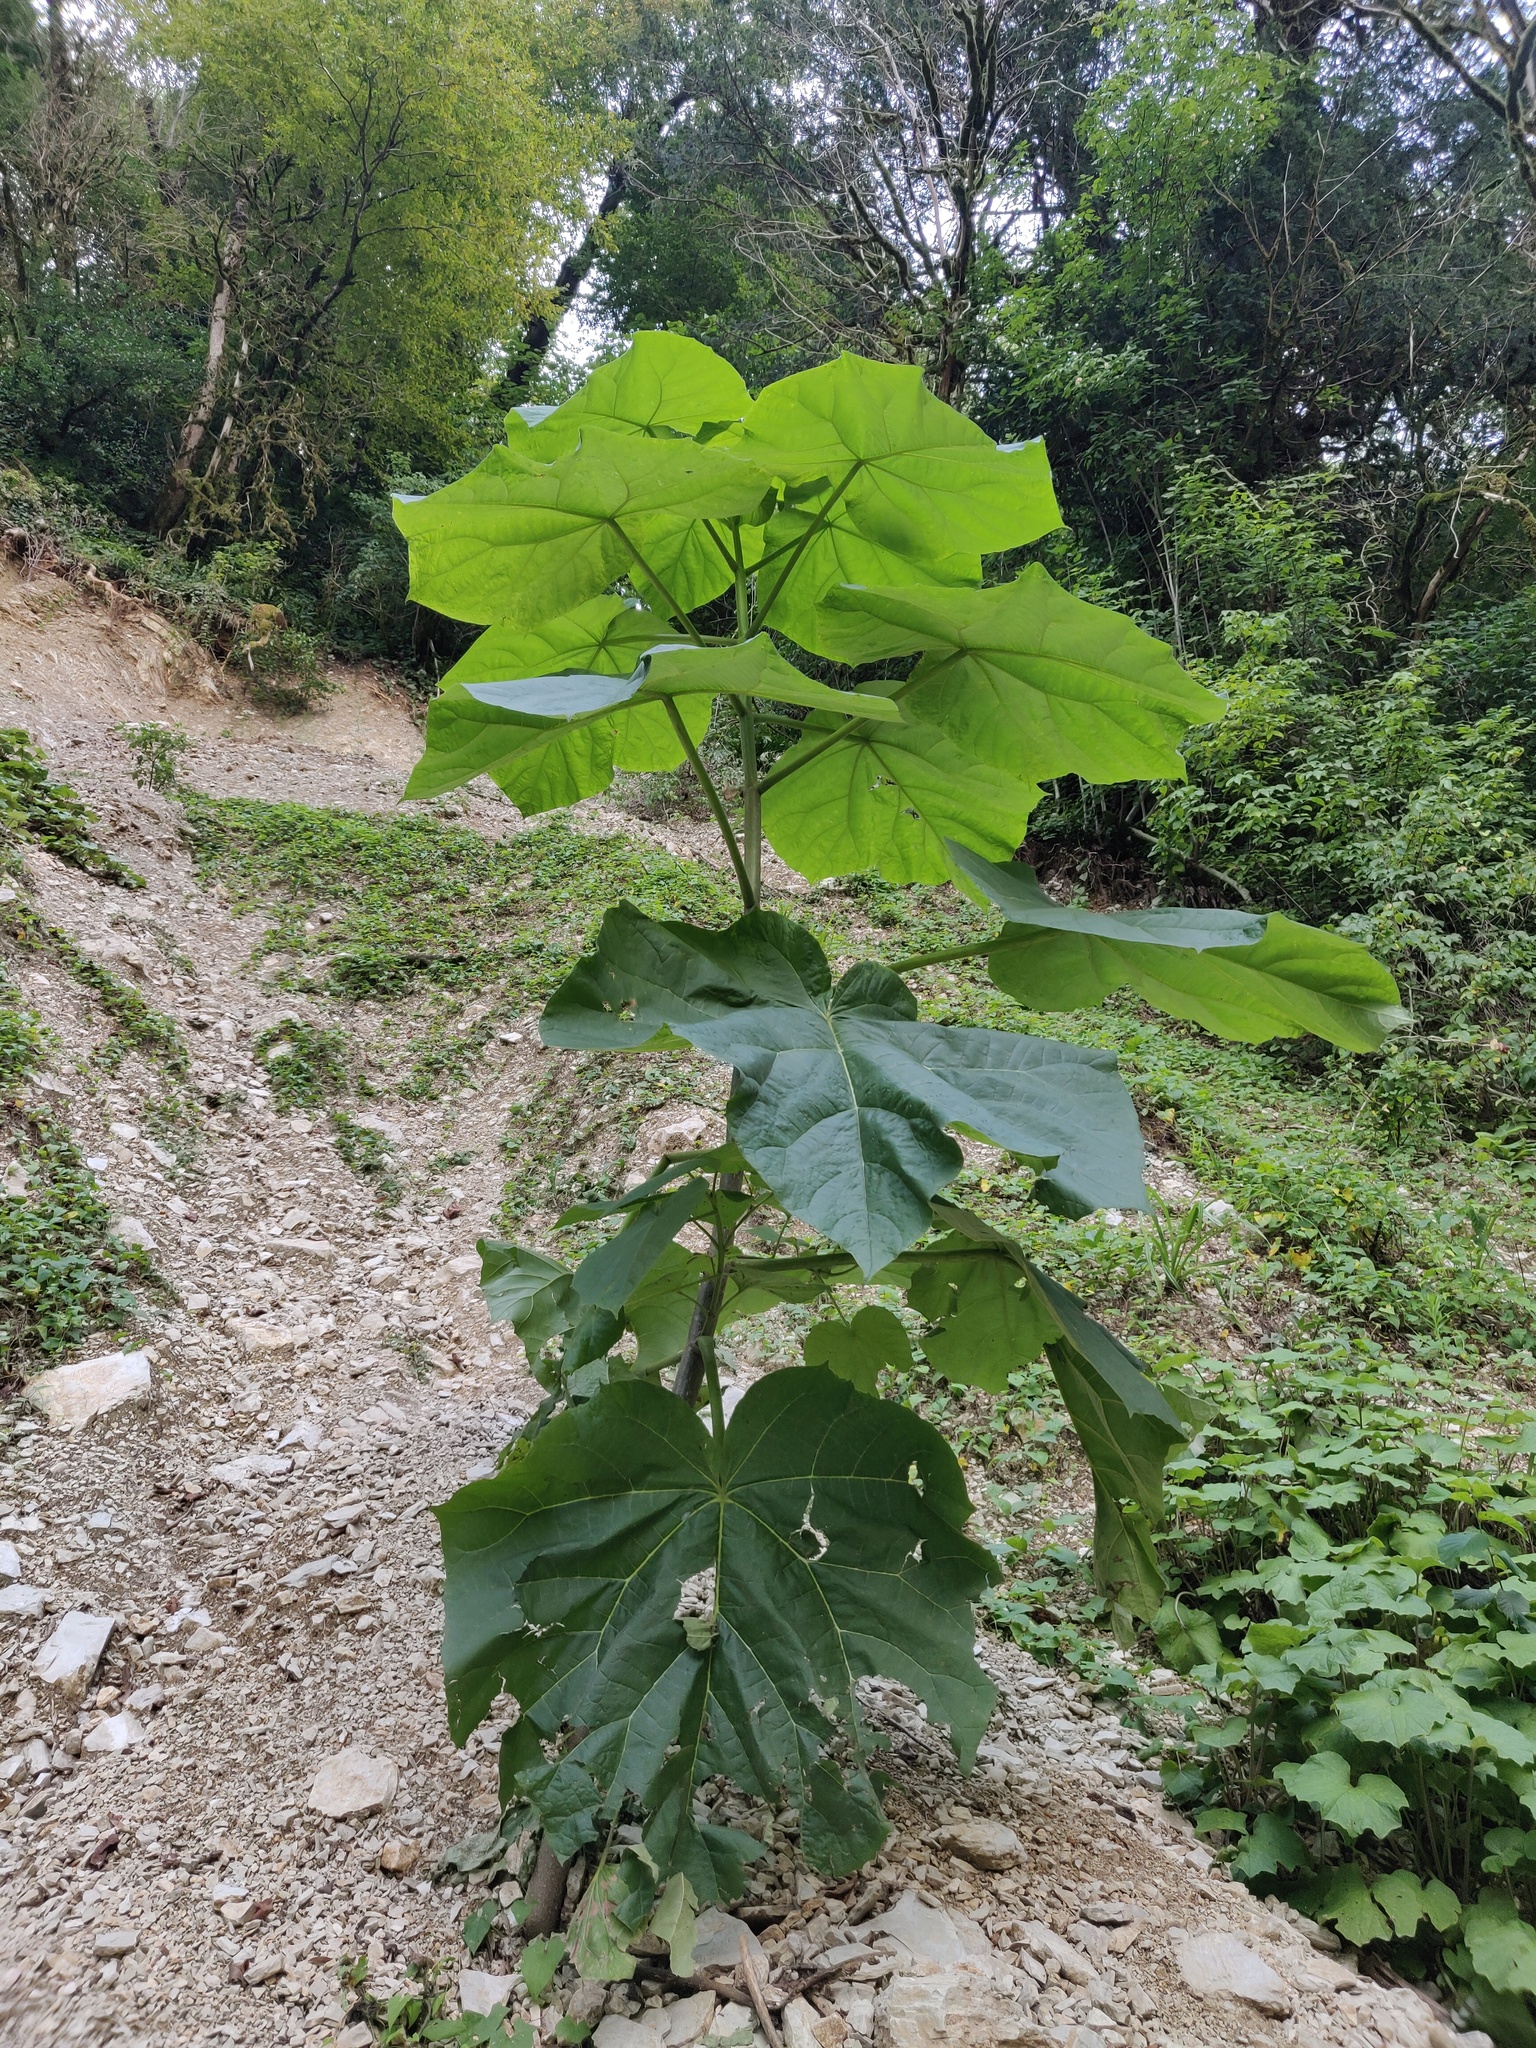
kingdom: Plantae
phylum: Tracheophyta
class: Magnoliopsida
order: Lamiales
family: Paulowniaceae
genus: Paulownia
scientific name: Paulownia tomentosa
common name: Foxglove-tree
